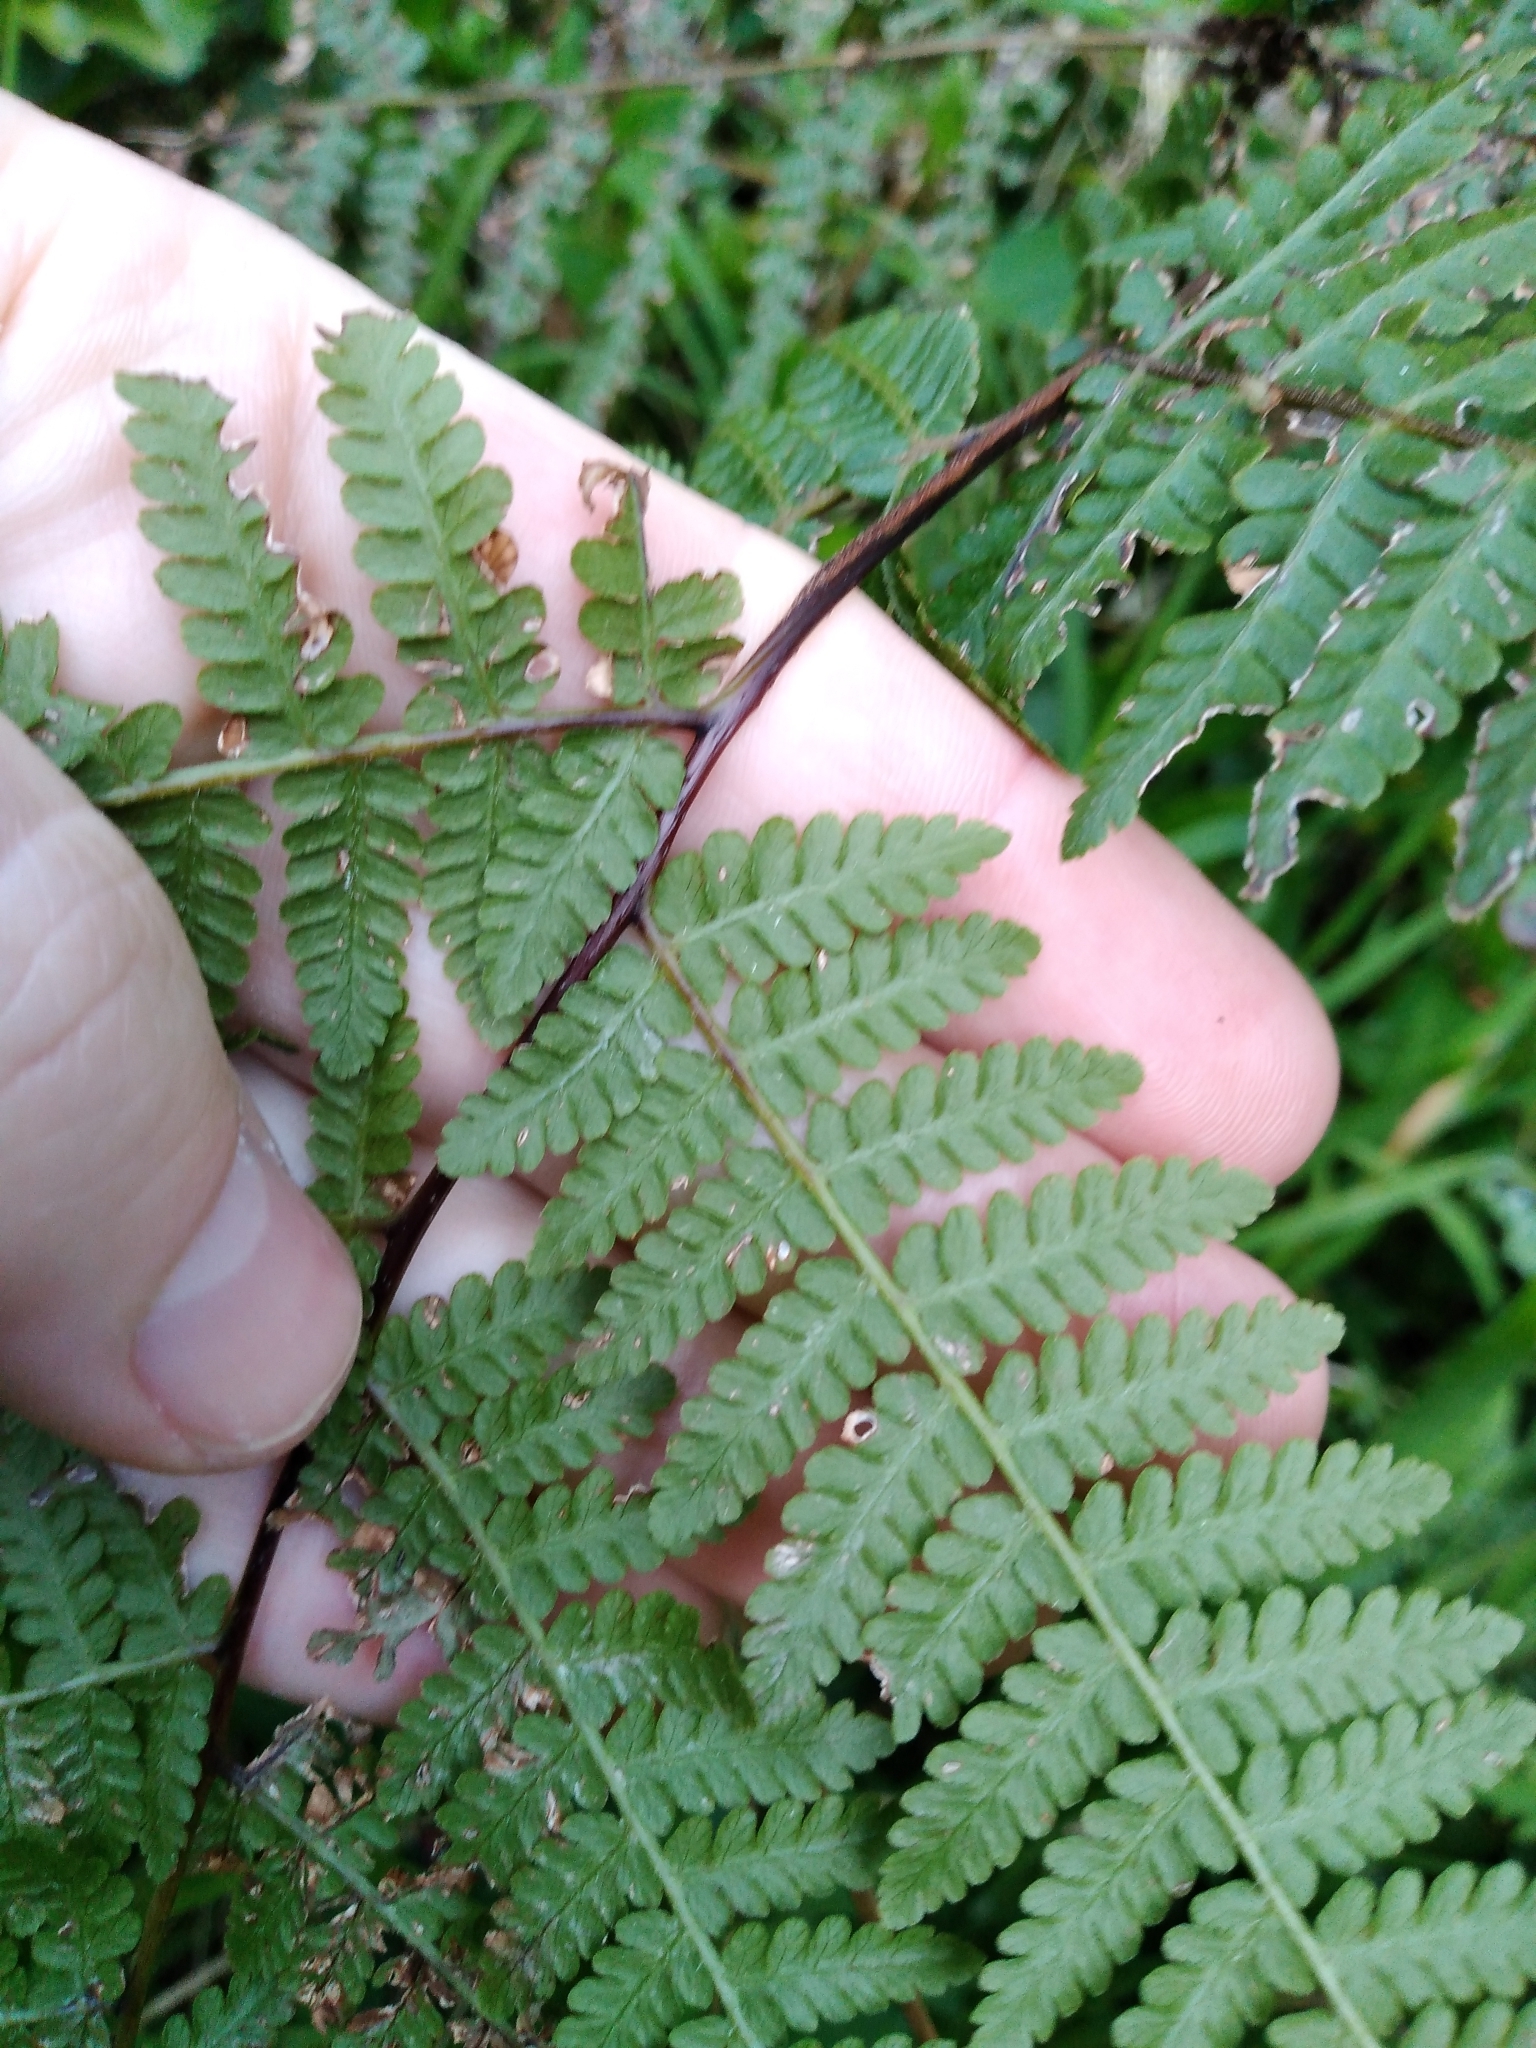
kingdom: Plantae
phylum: Tracheophyta
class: Polypodiopsida
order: Polypodiales
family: Dennstaedtiaceae
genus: Hypolepis
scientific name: Hypolepis ambigua
